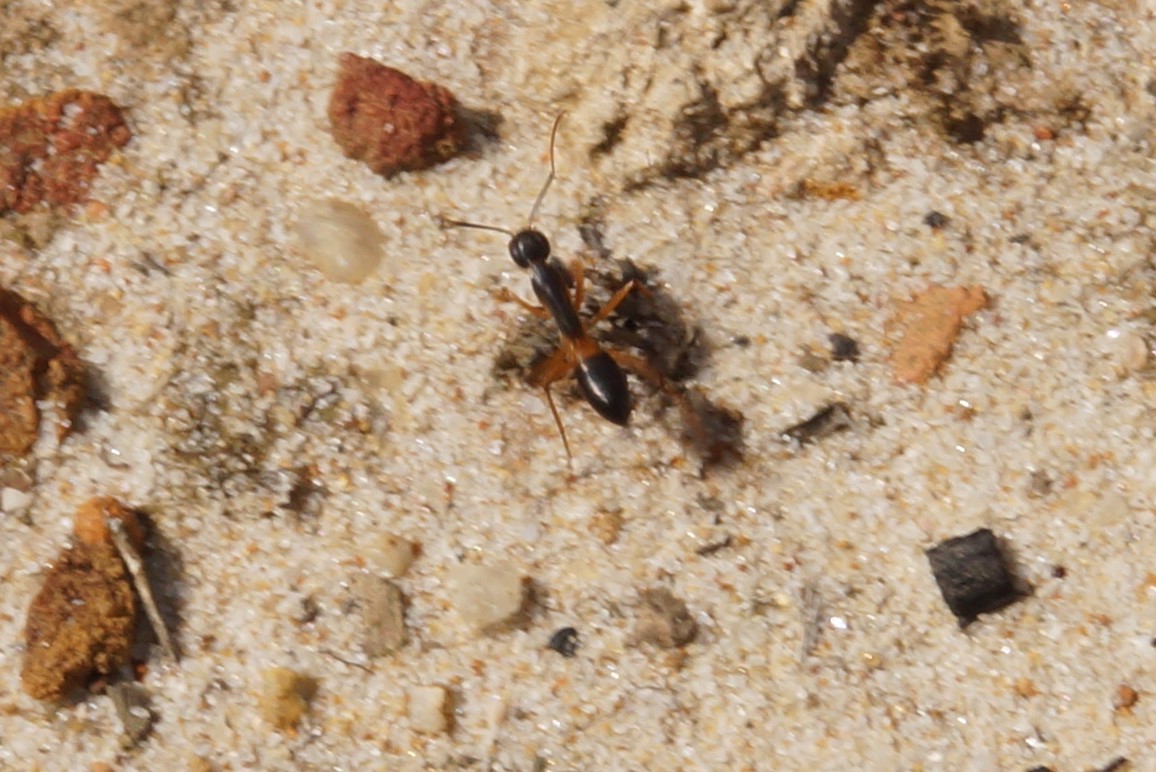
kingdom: Animalia
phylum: Arthropoda
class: Insecta
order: Hymenoptera
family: Formicidae
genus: Camponotus
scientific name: Camponotus consobrinus
